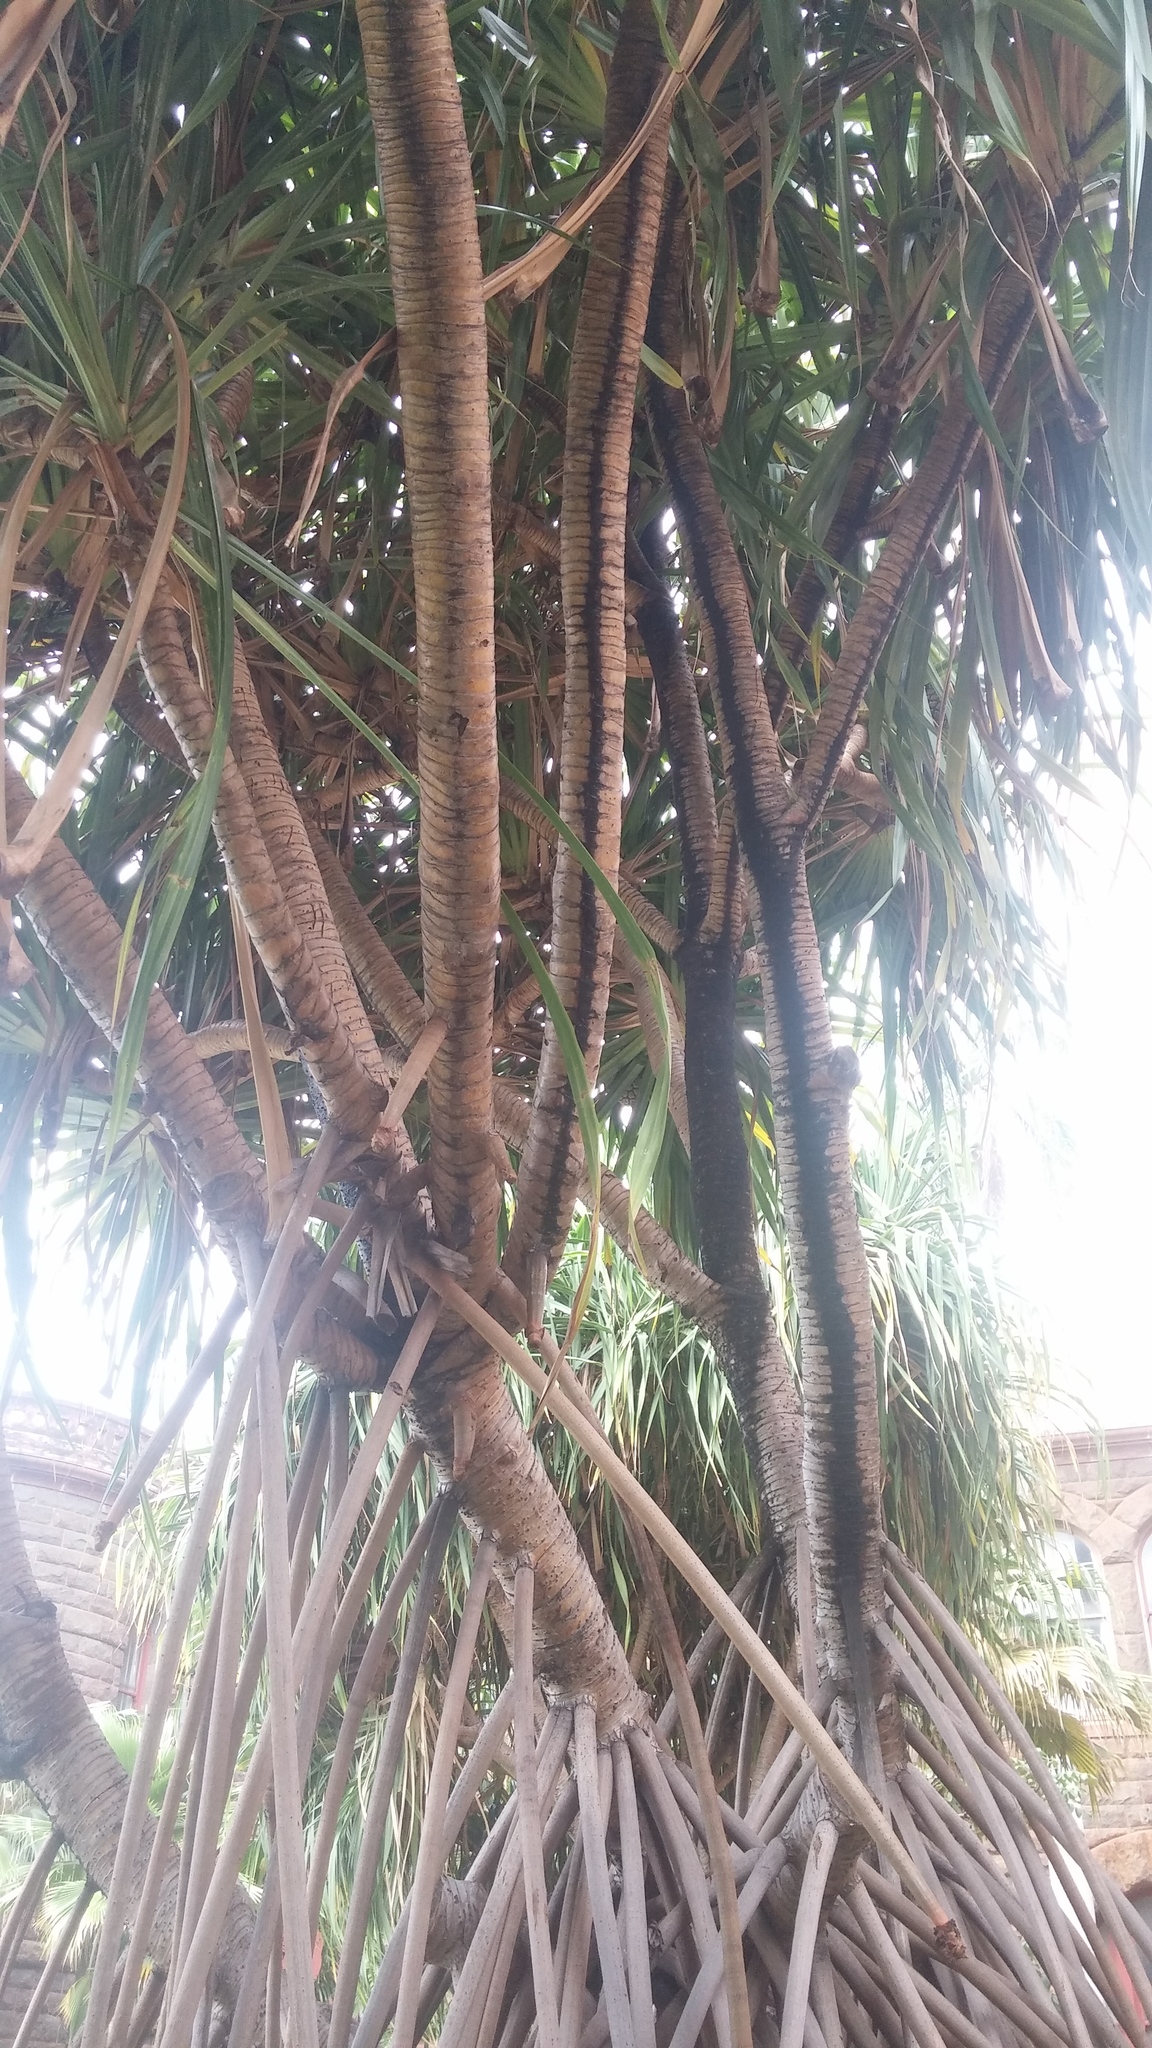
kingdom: Plantae
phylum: Tracheophyta
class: Liliopsida
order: Pandanales
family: Pandanaceae
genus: Pandanus
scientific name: Pandanus tectorius
